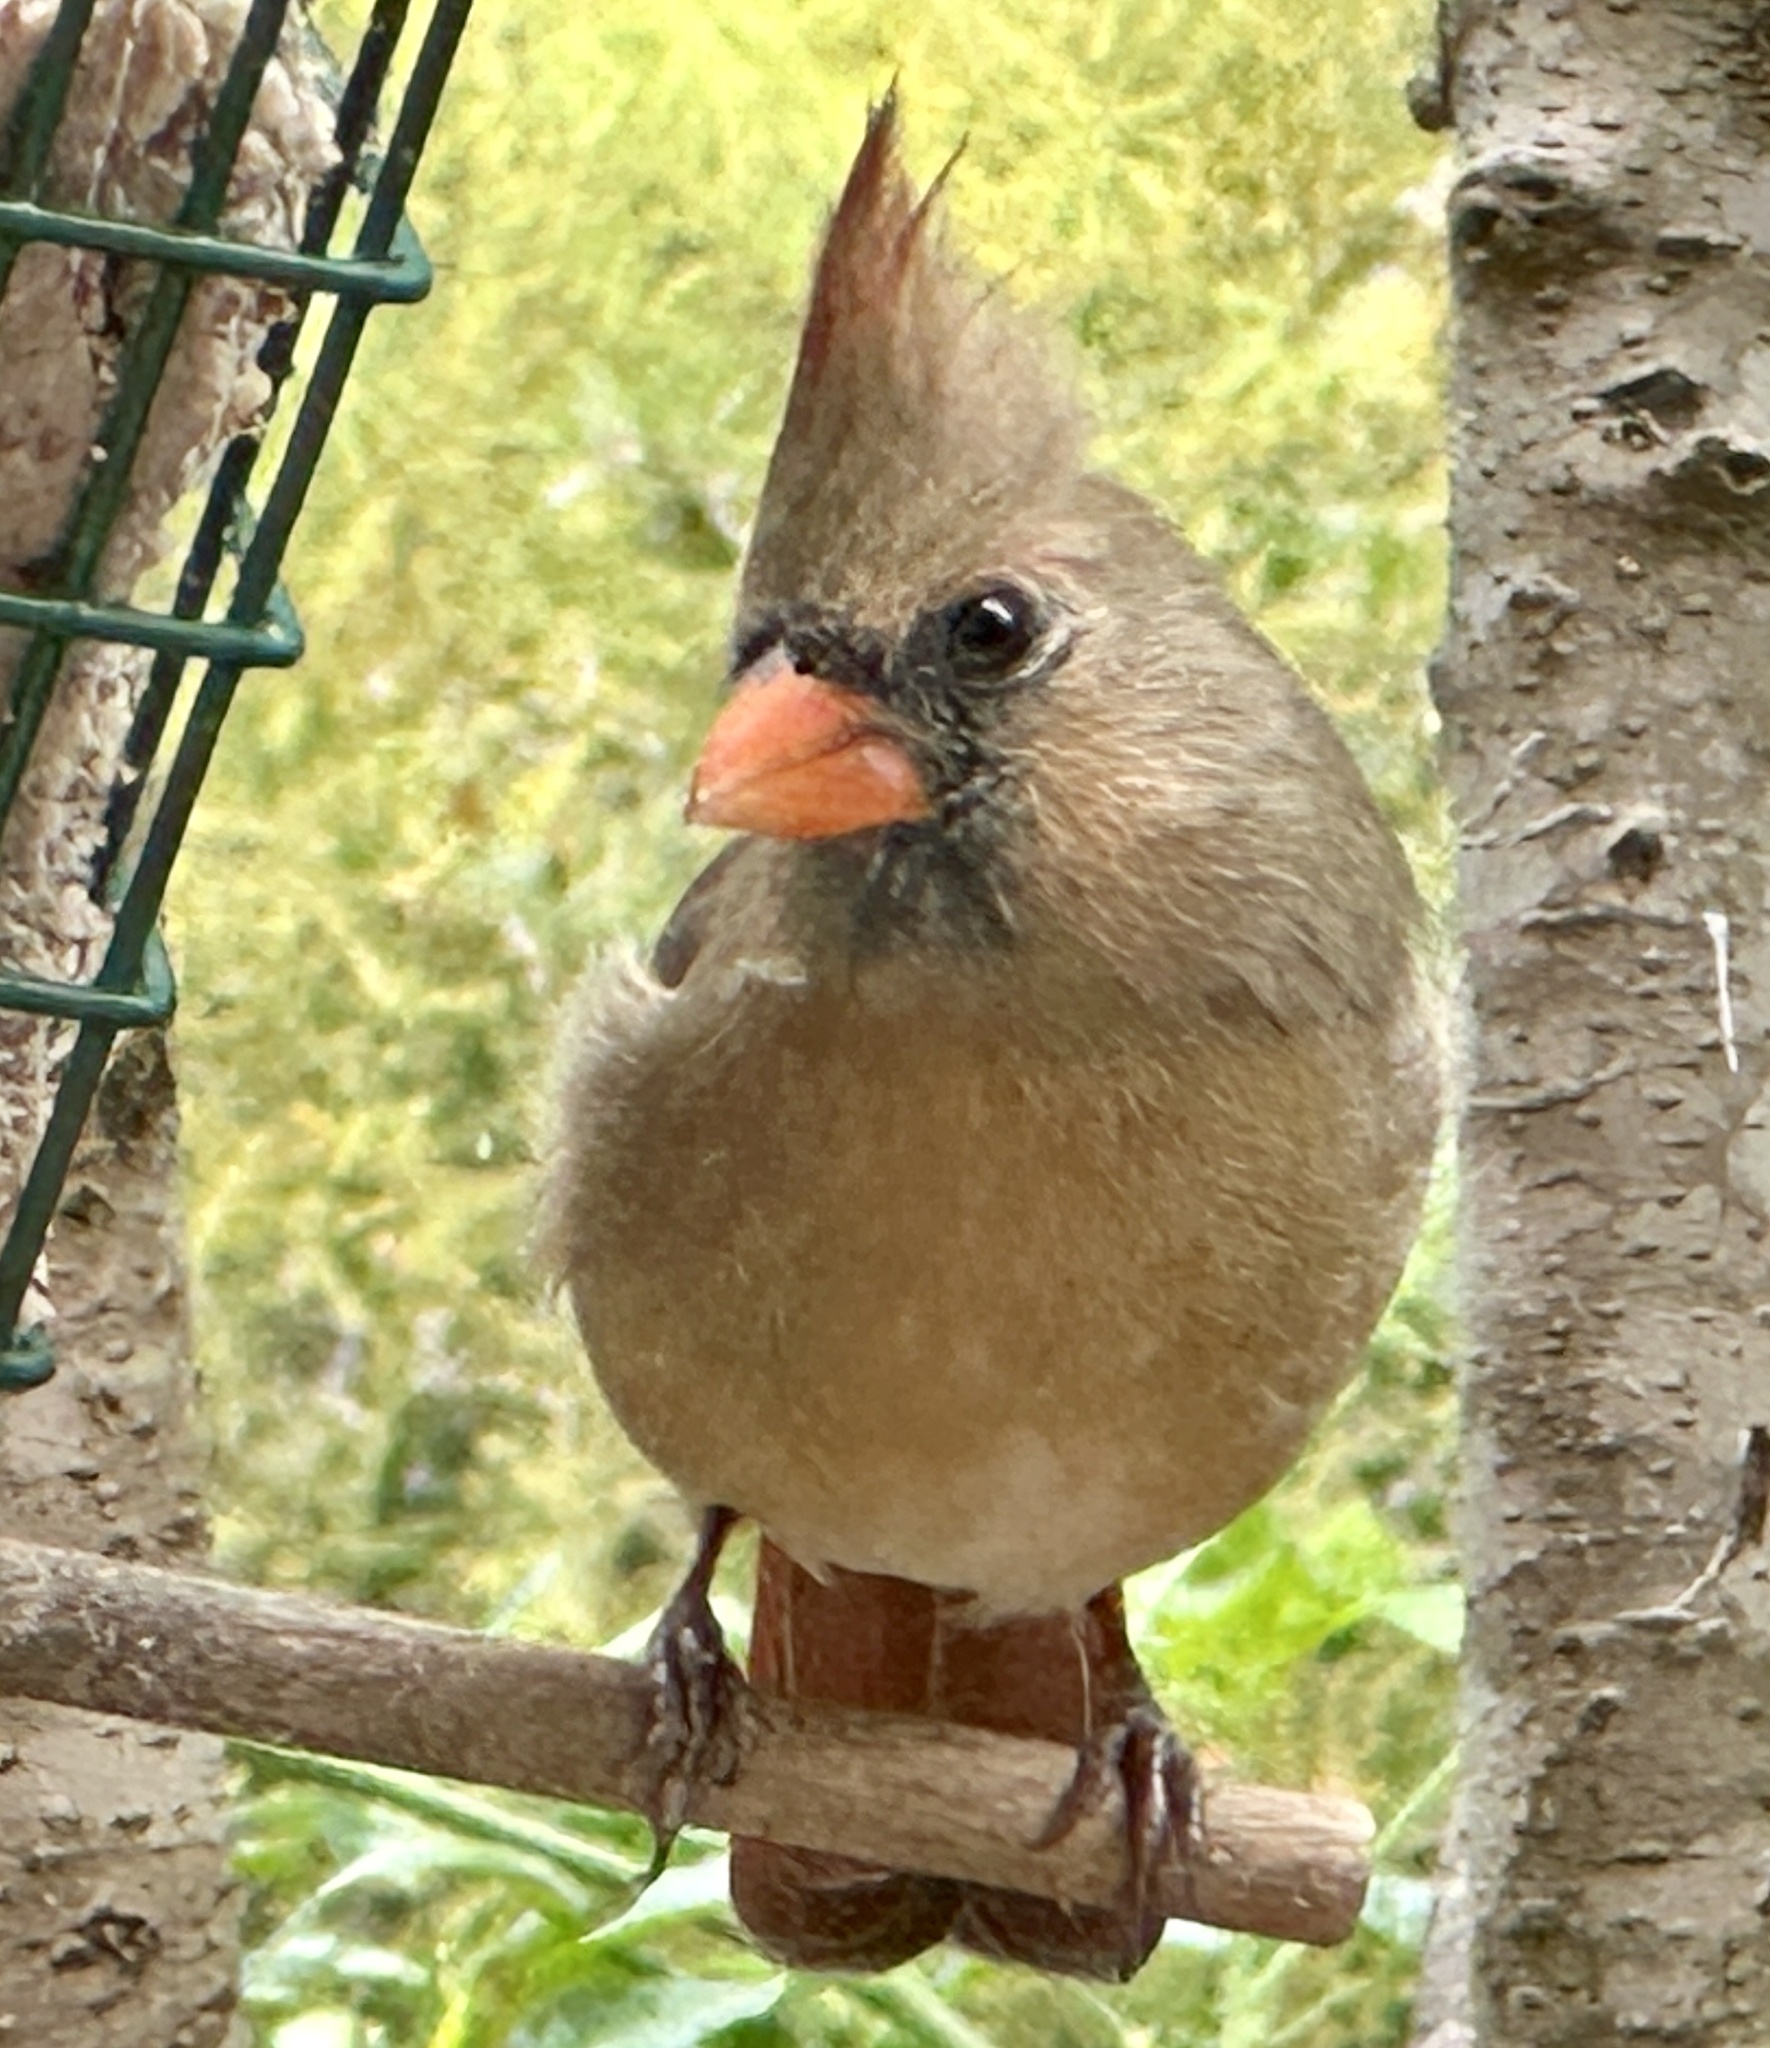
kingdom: Animalia
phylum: Chordata
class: Aves
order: Passeriformes
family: Cardinalidae
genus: Cardinalis
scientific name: Cardinalis cardinalis
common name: Northern cardinal
